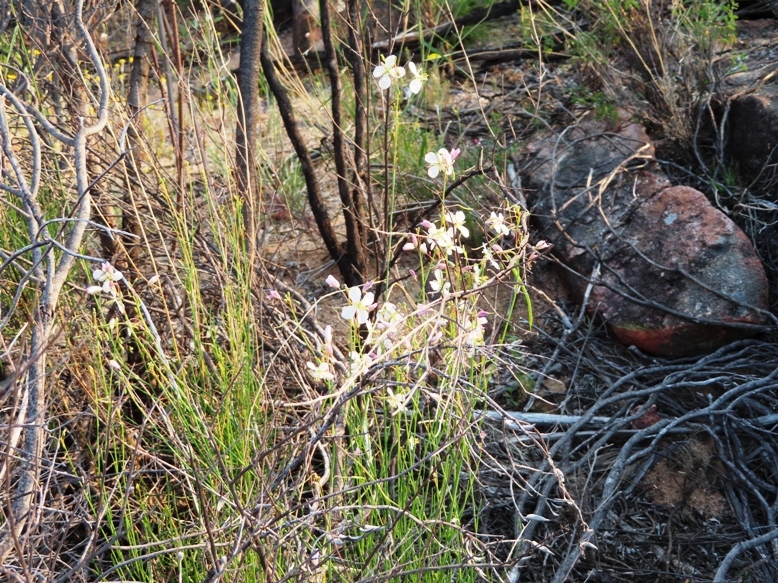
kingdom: Plantae
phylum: Tracheophyta
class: Magnoliopsida
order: Brassicales
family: Brassicaceae
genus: Heliophila
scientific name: Heliophila carnosa
